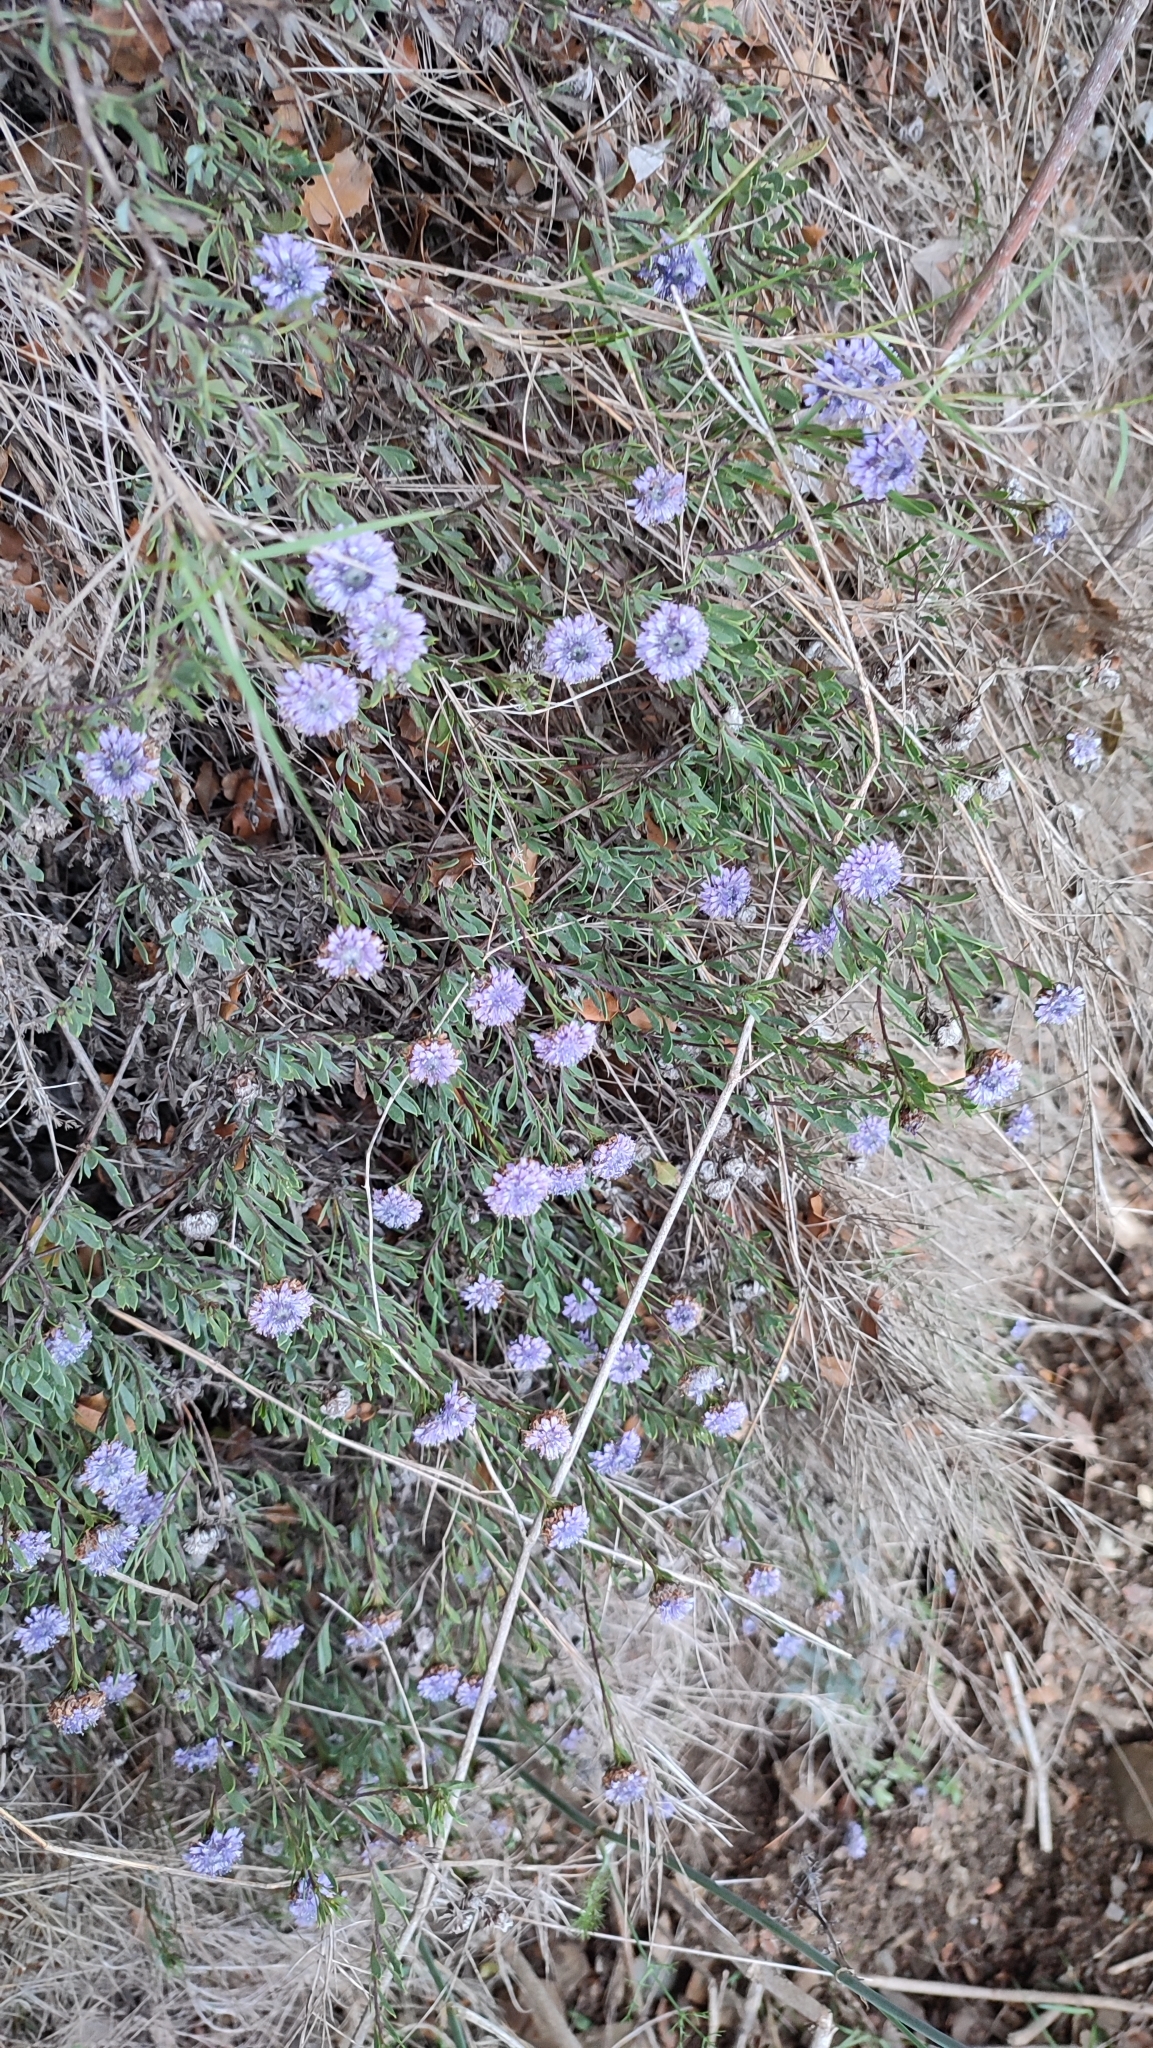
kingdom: Plantae
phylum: Tracheophyta
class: Magnoliopsida
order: Lamiales
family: Plantaginaceae
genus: Globularia
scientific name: Globularia alypum
